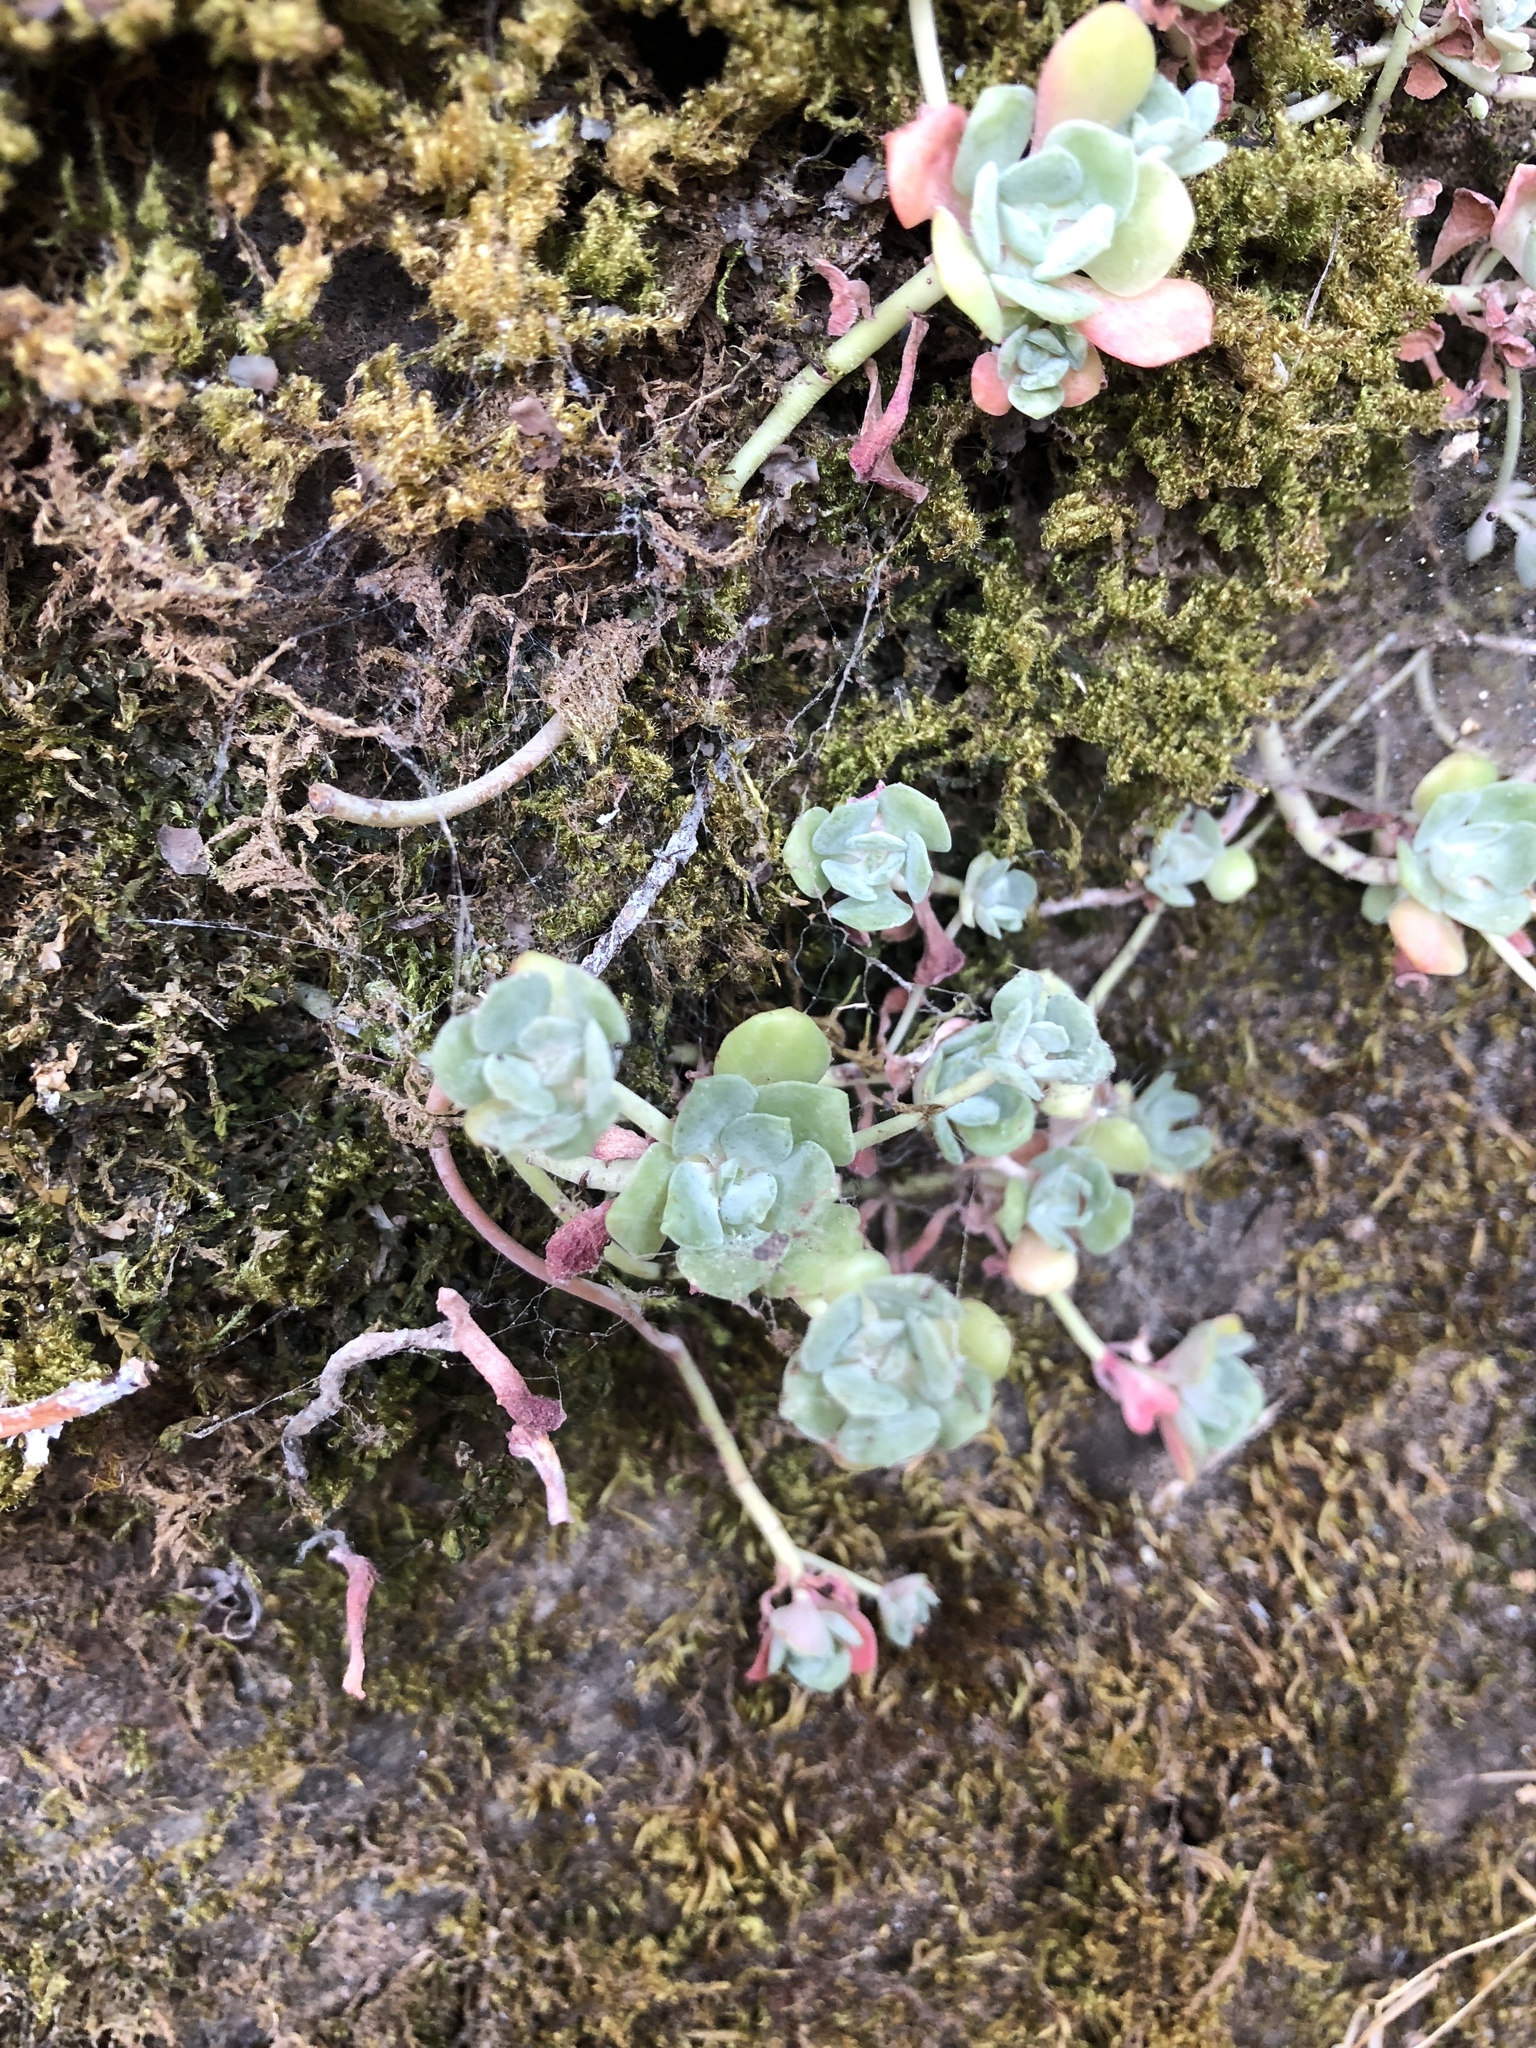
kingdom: Plantae
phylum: Tracheophyta
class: Magnoliopsida
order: Saxifragales
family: Crassulaceae
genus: Sedum
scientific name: Sedum spathulifolium
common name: Colorado stonecrop
